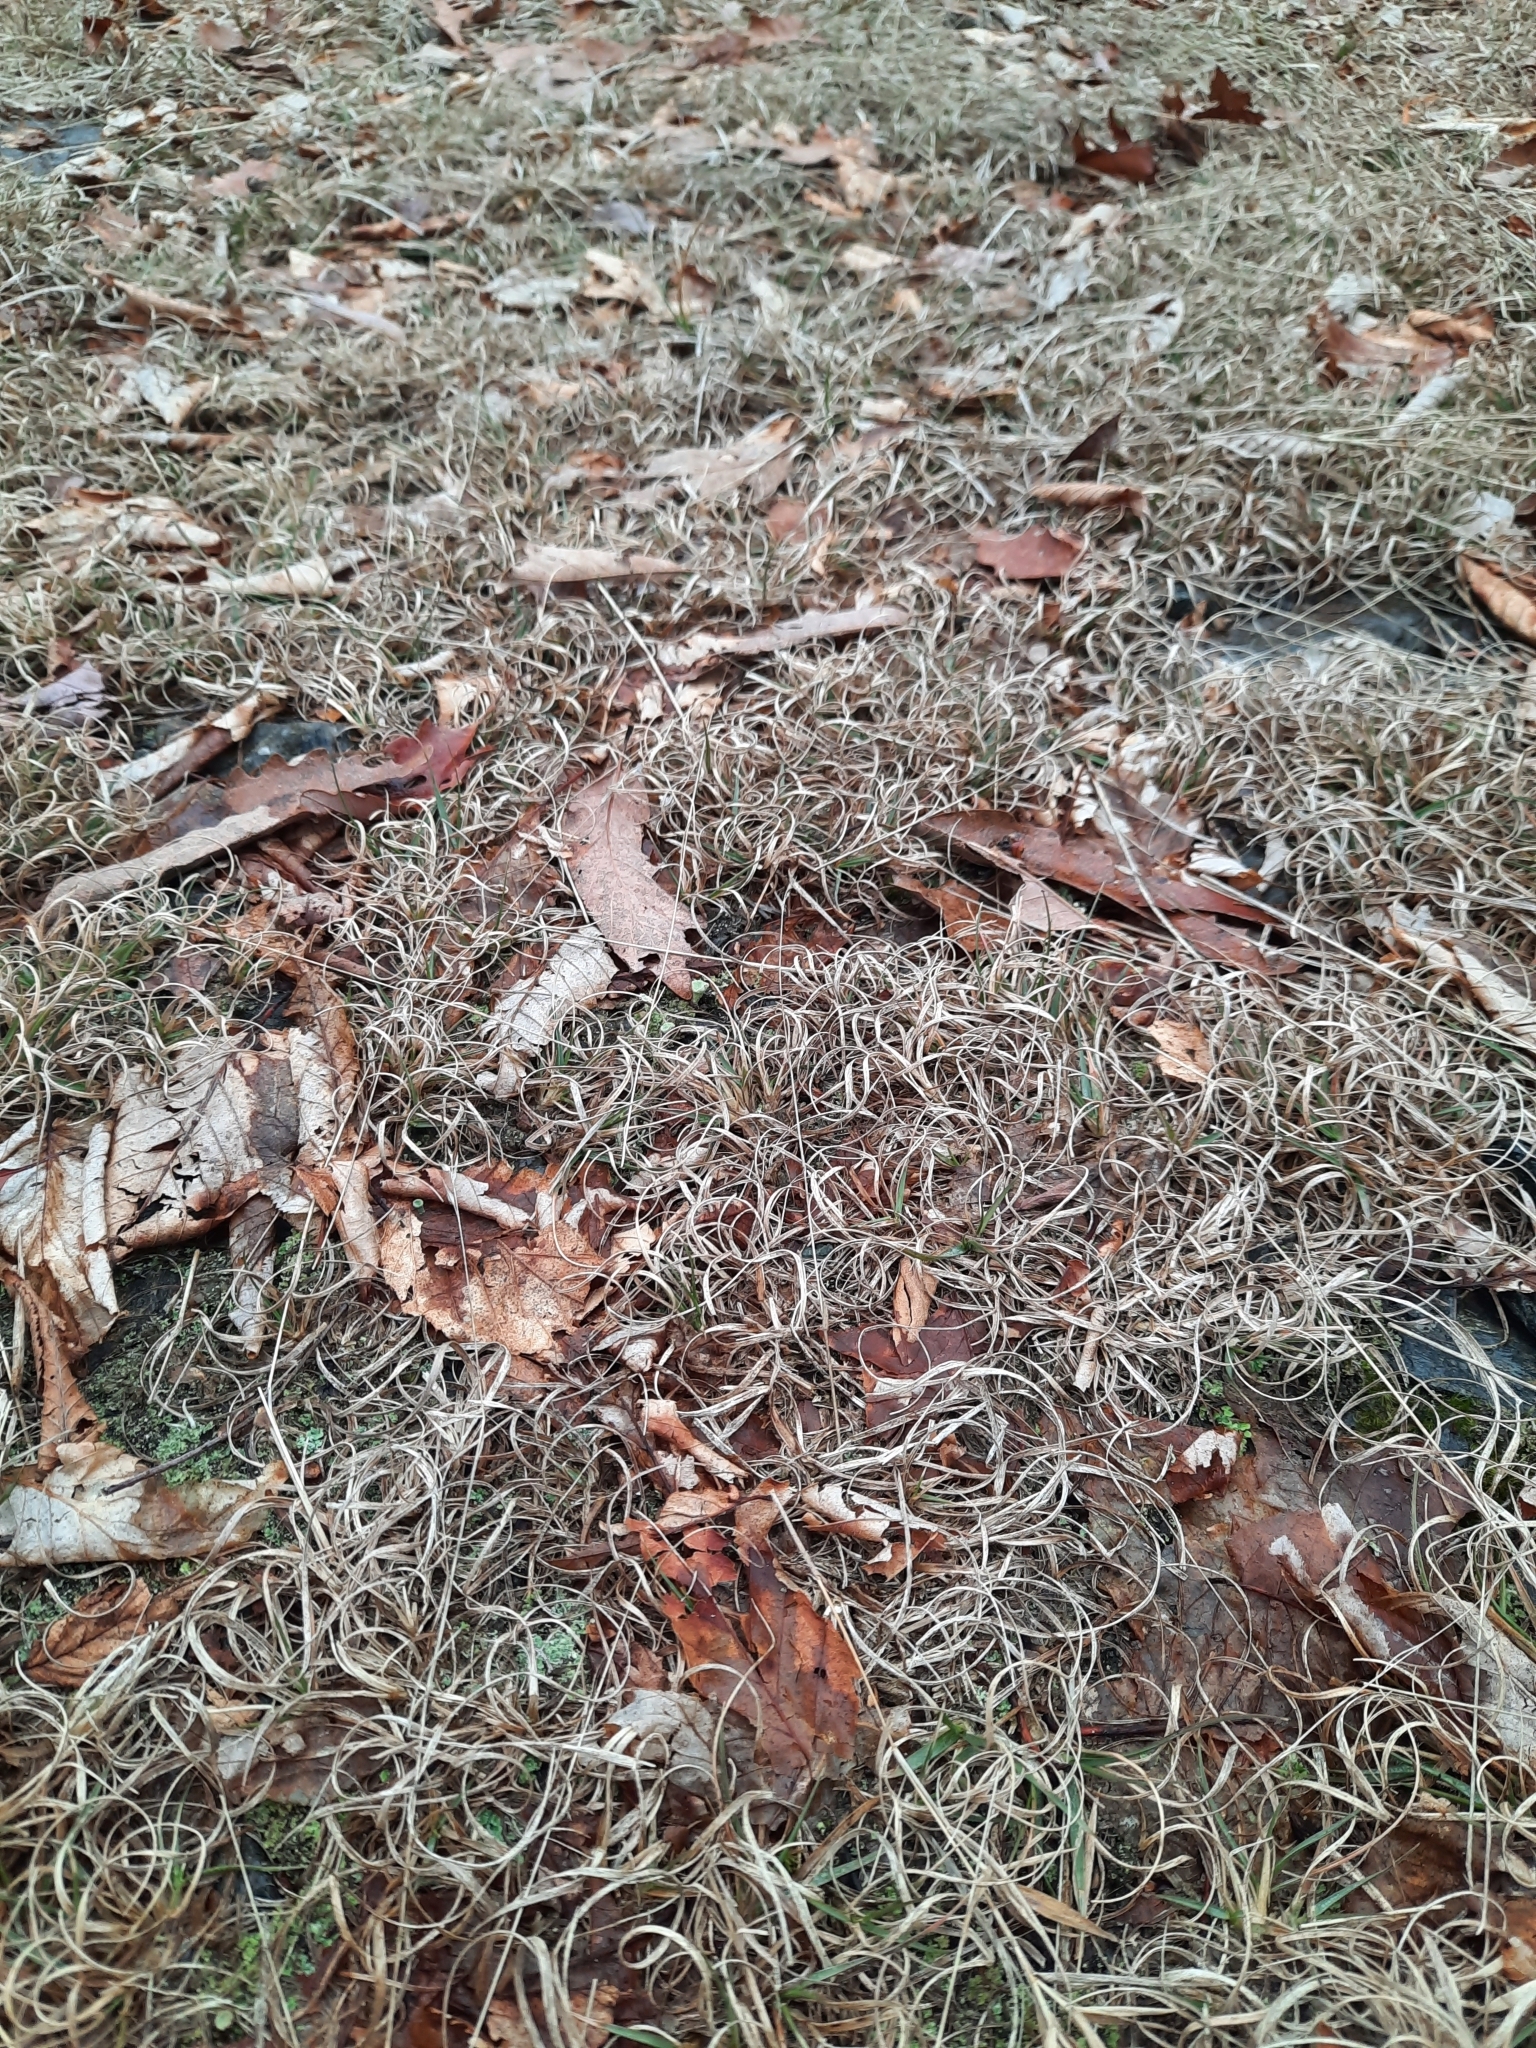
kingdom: Plantae
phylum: Tracheophyta
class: Liliopsida
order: Poales
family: Poaceae
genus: Danthonia
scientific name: Danthonia spicata
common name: Common wild oatgrass
